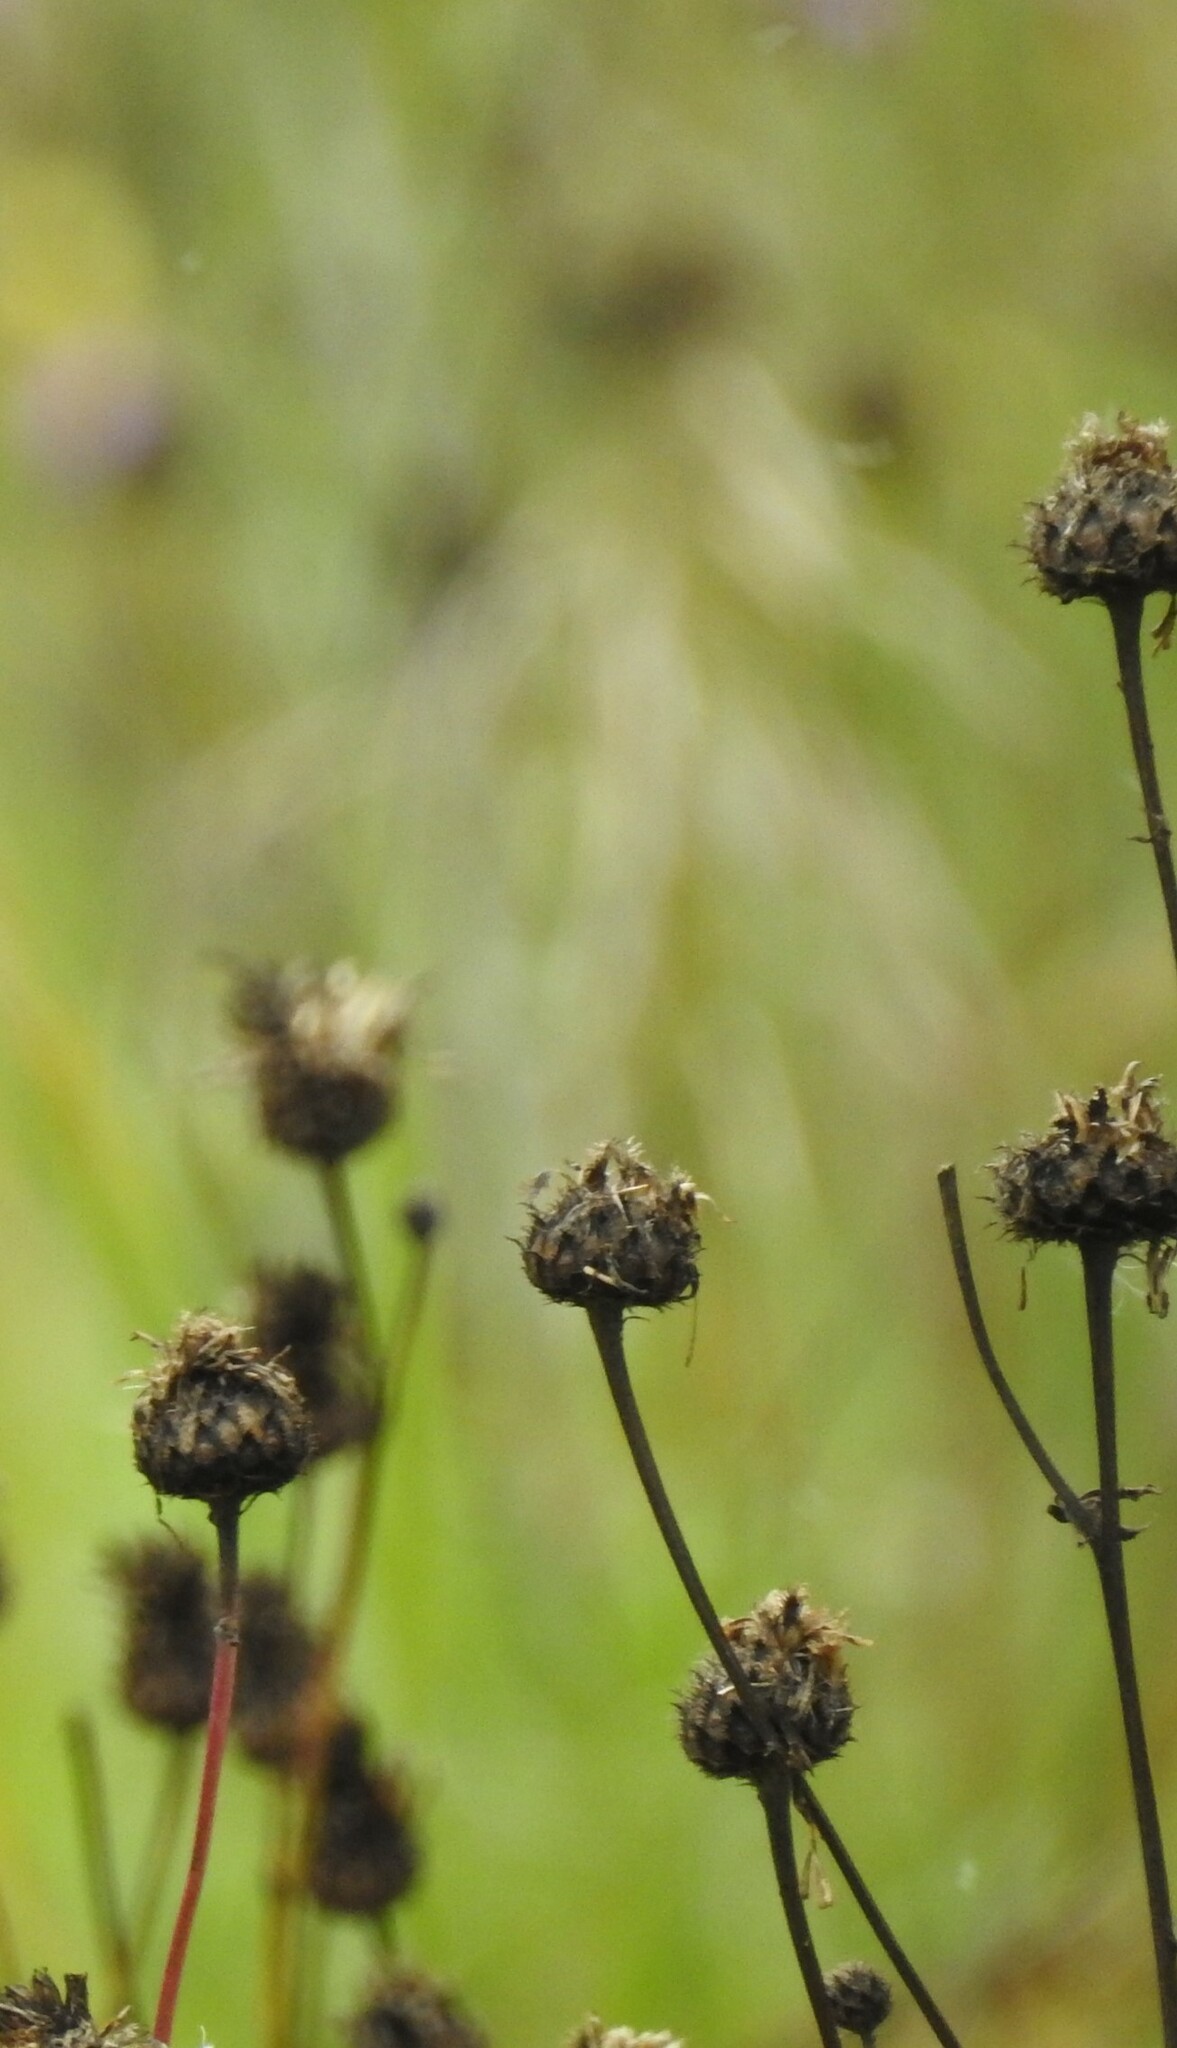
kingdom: Plantae
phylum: Tracheophyta
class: Magnoliopsida
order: Asterales
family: Asteraceae
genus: Centaurea
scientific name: Centaurea scabiosa
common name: Greater knapweed
